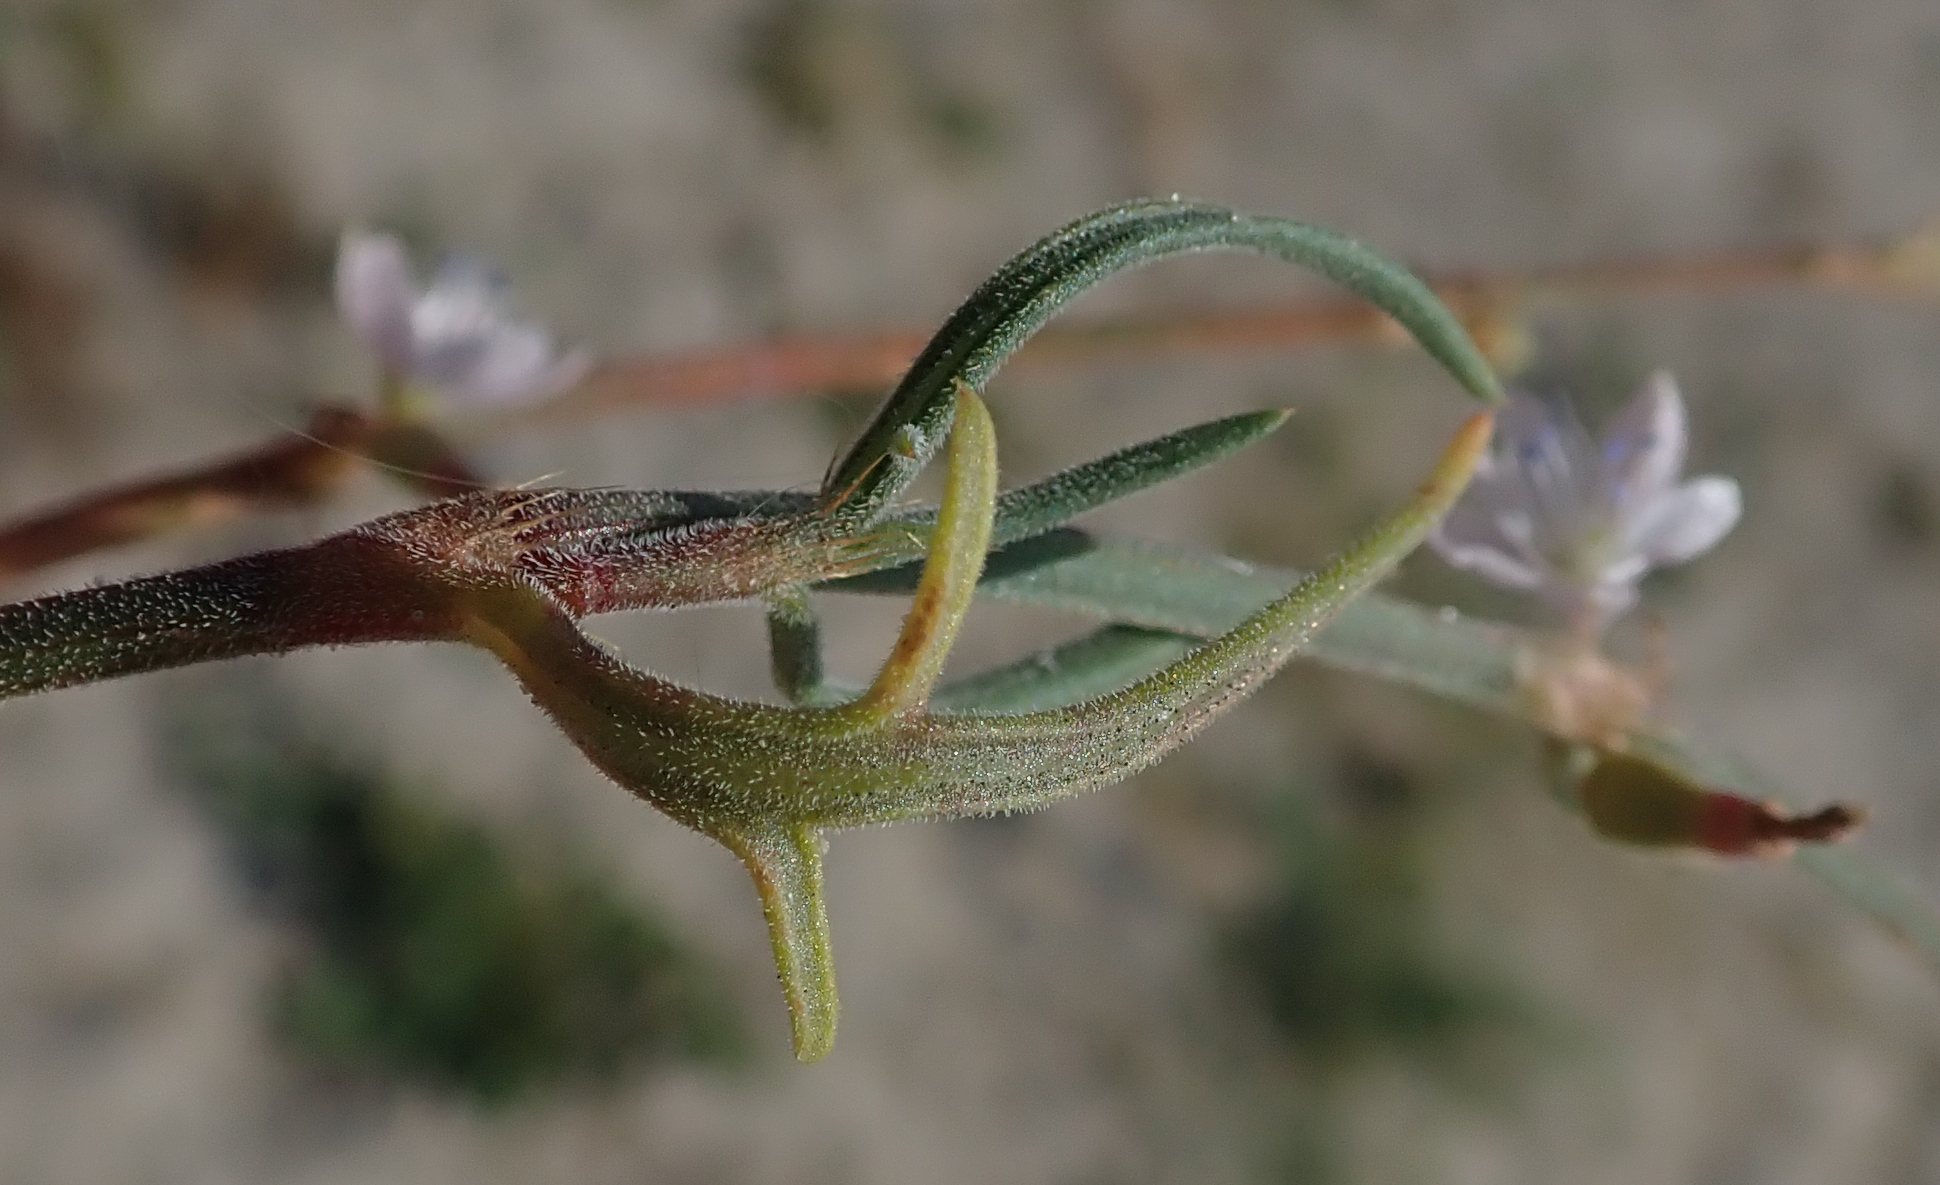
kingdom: Plantae
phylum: Tracheophyta
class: Magnoliopsida
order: Caryophyllales
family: Polygonaceae
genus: Oxygonum
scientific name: Oxygonum alatum
